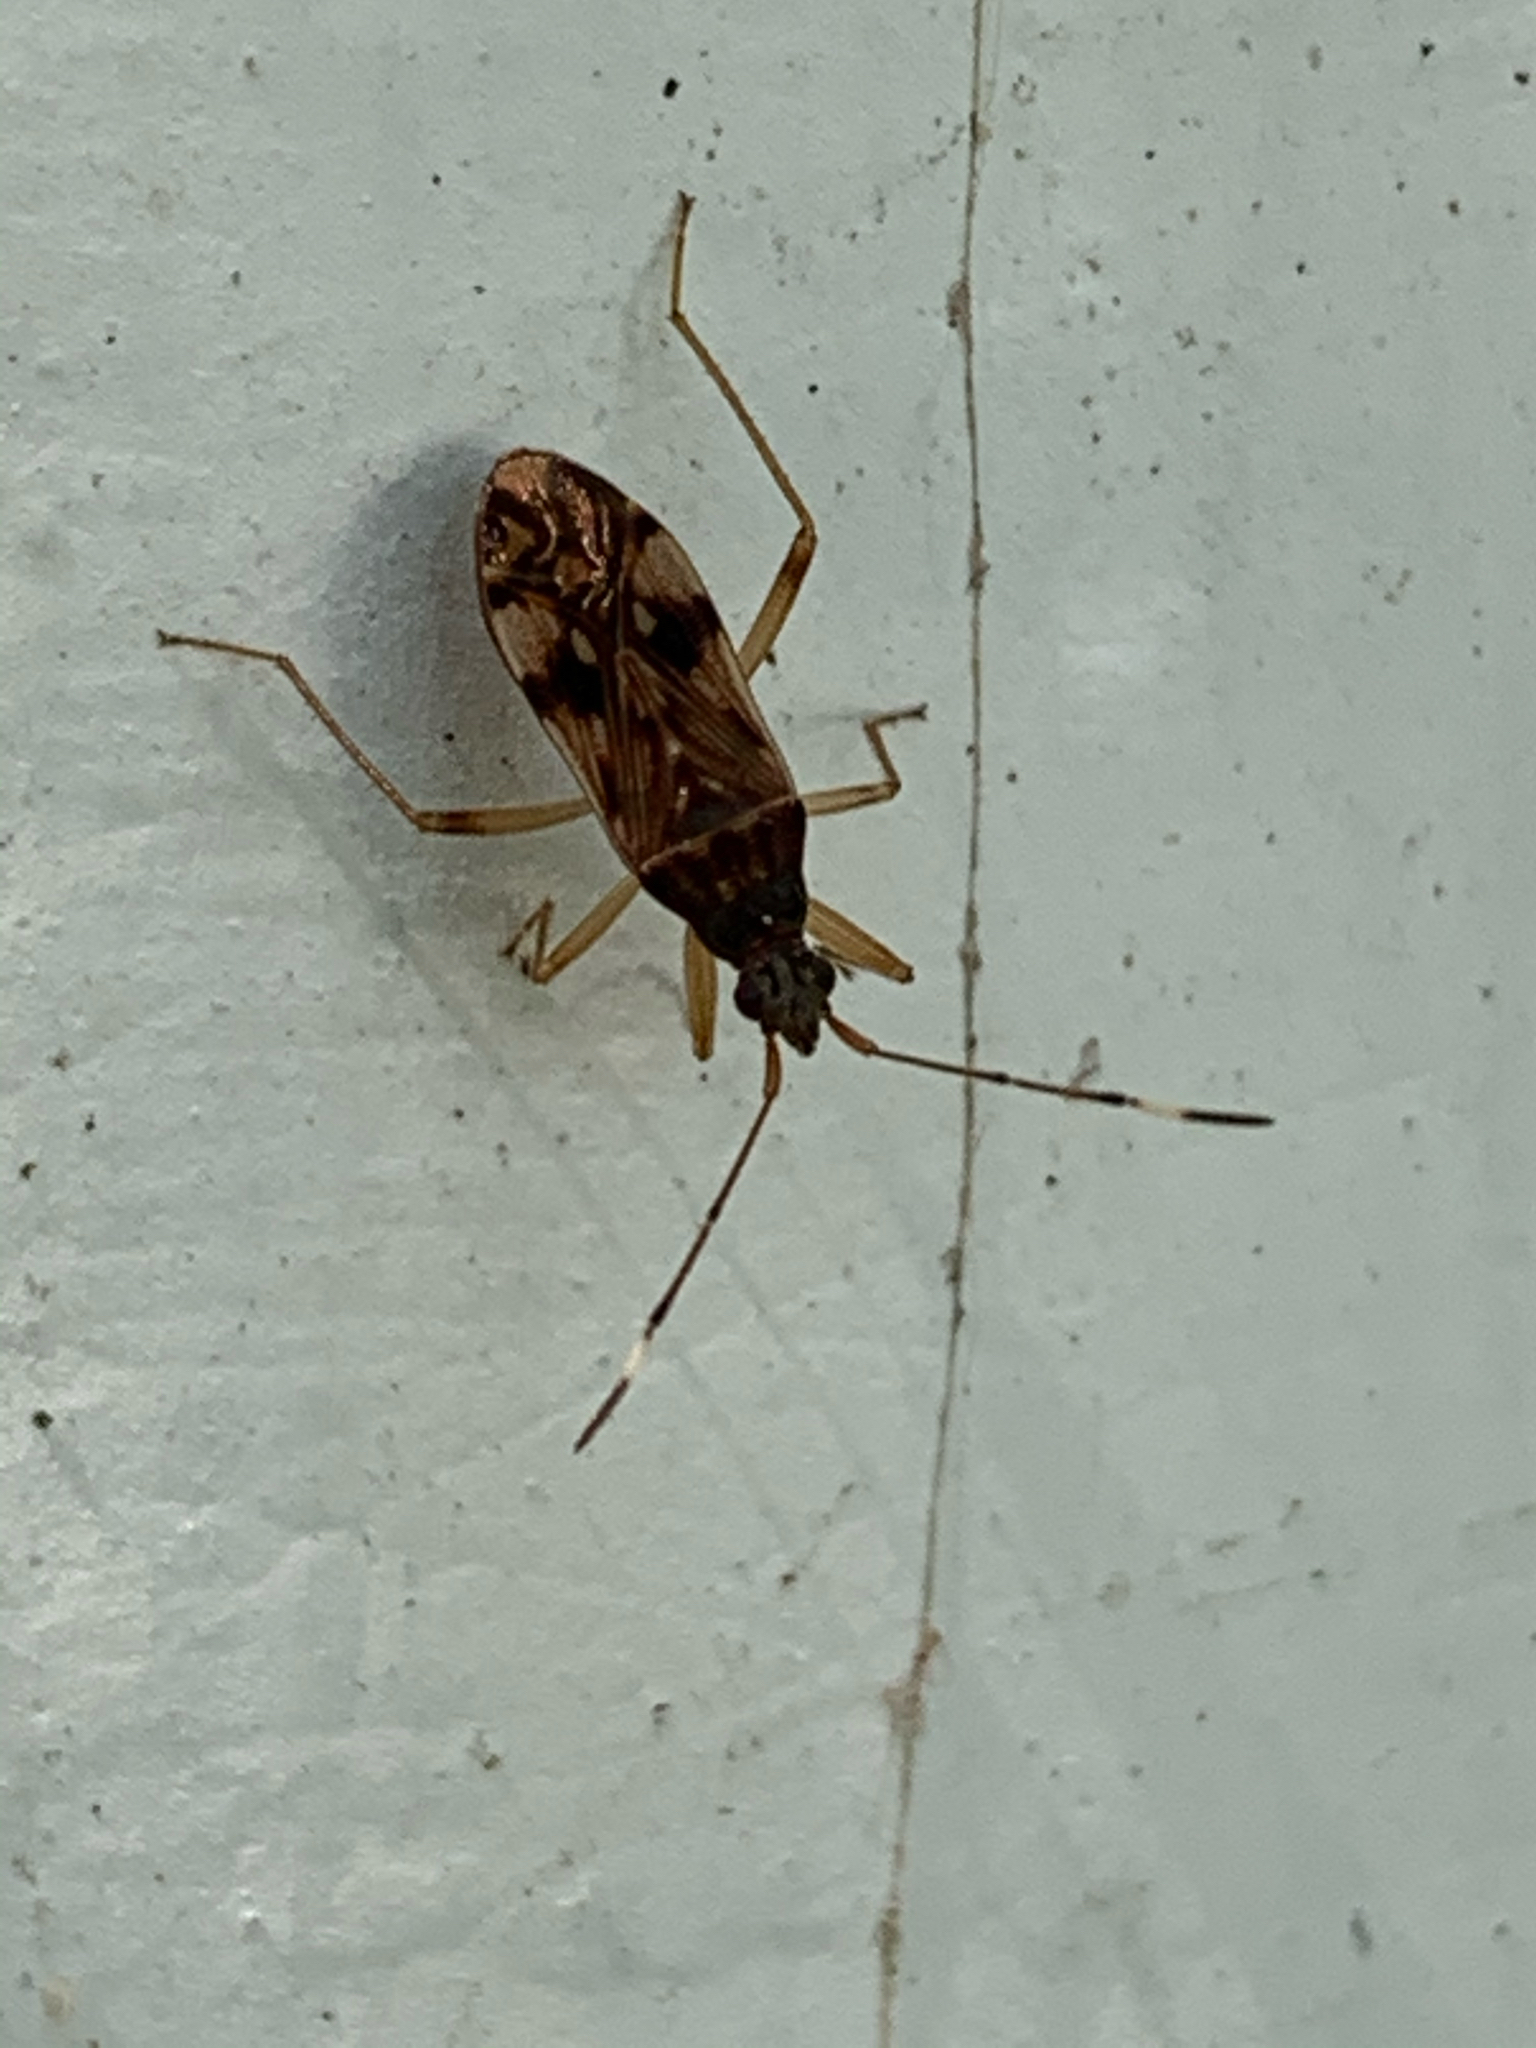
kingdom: Animalia
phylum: Arthropoda
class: Insecta
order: Hemiptera
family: Rhyparochromidae
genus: Ozophora
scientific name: Ozophora picturata
